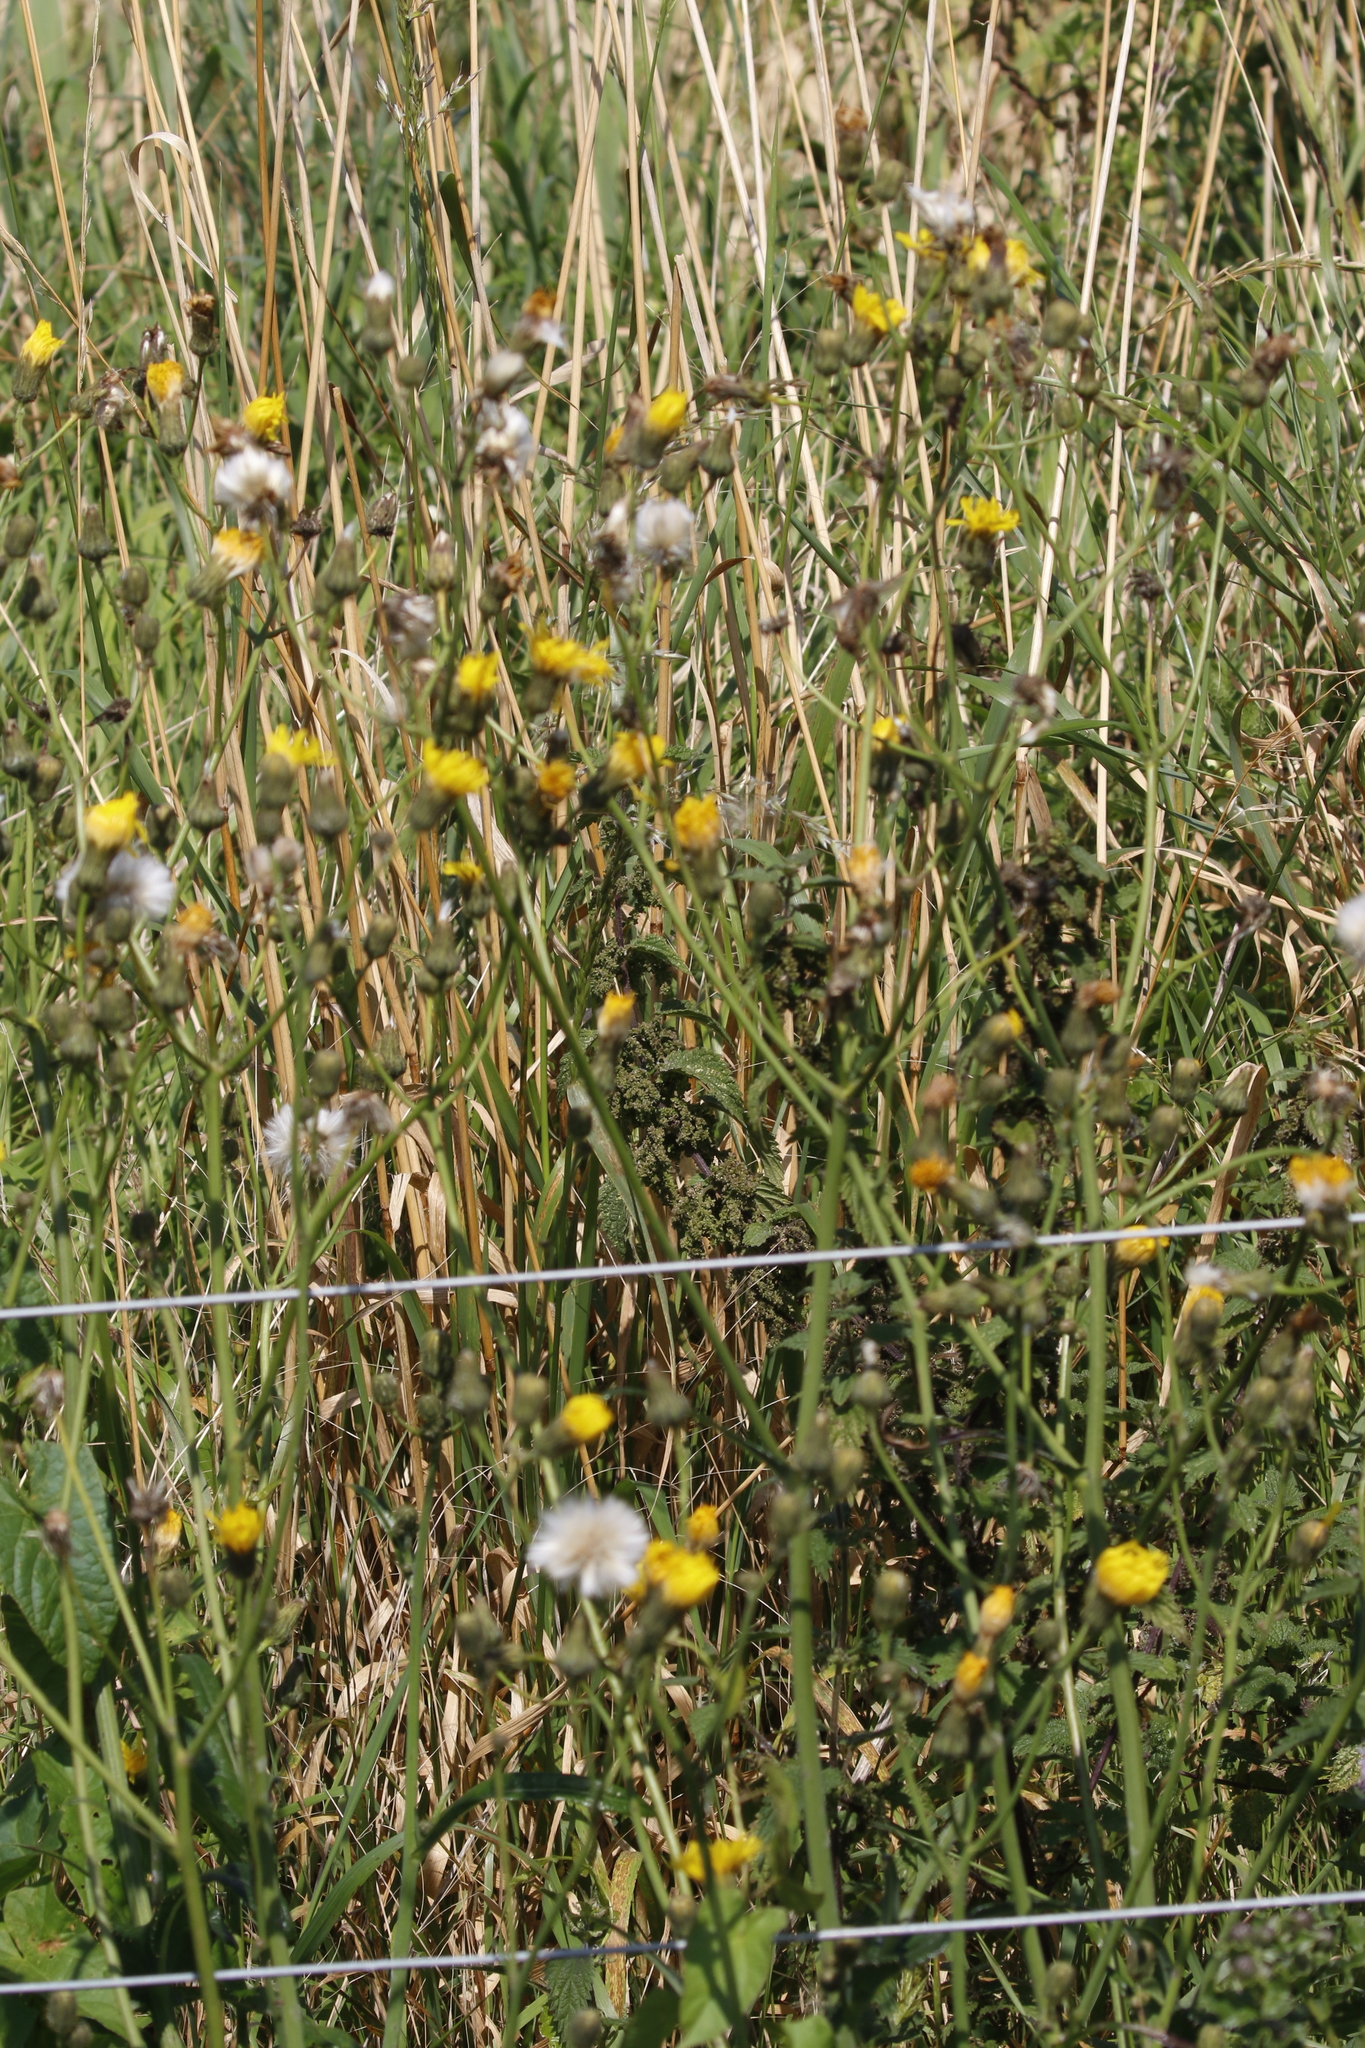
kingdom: Plantae
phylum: Tracheophyta
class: Magnoliopsida
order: Asterales
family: Asteraceae
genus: Sonchus
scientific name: Sonchus arvensis
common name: Perennial sow-thistle
